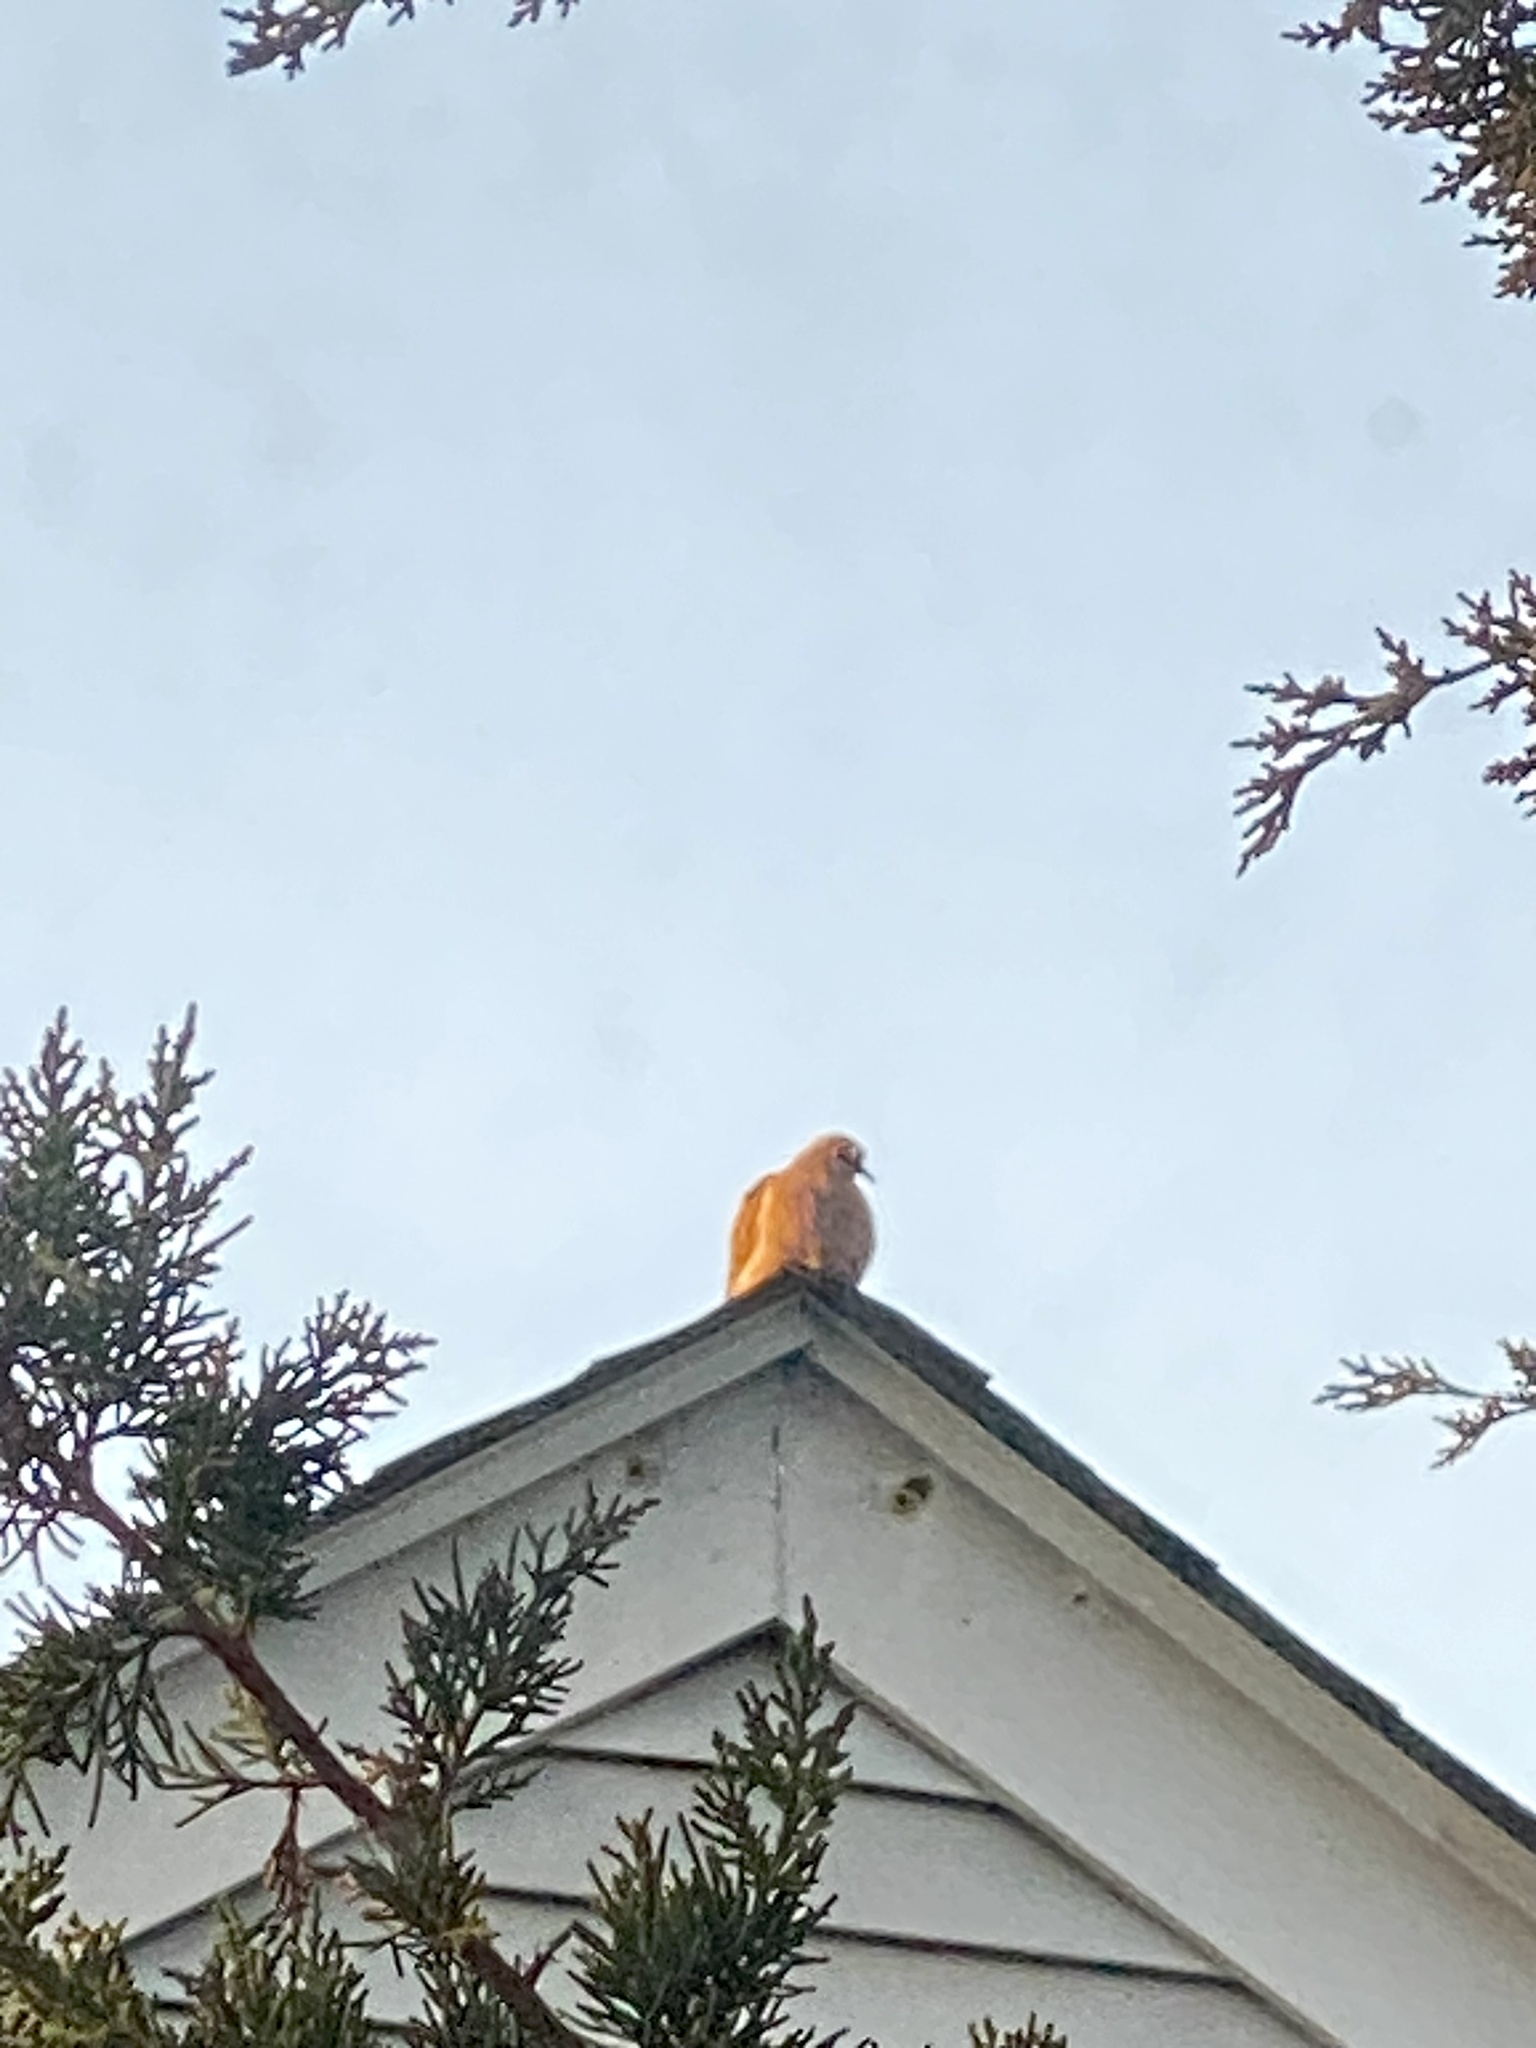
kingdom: Animalia
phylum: Chordata
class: Aves
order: Columbiformes
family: Columbidae
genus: Zenaida
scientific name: Zenaida macroura
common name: Mourning dove
